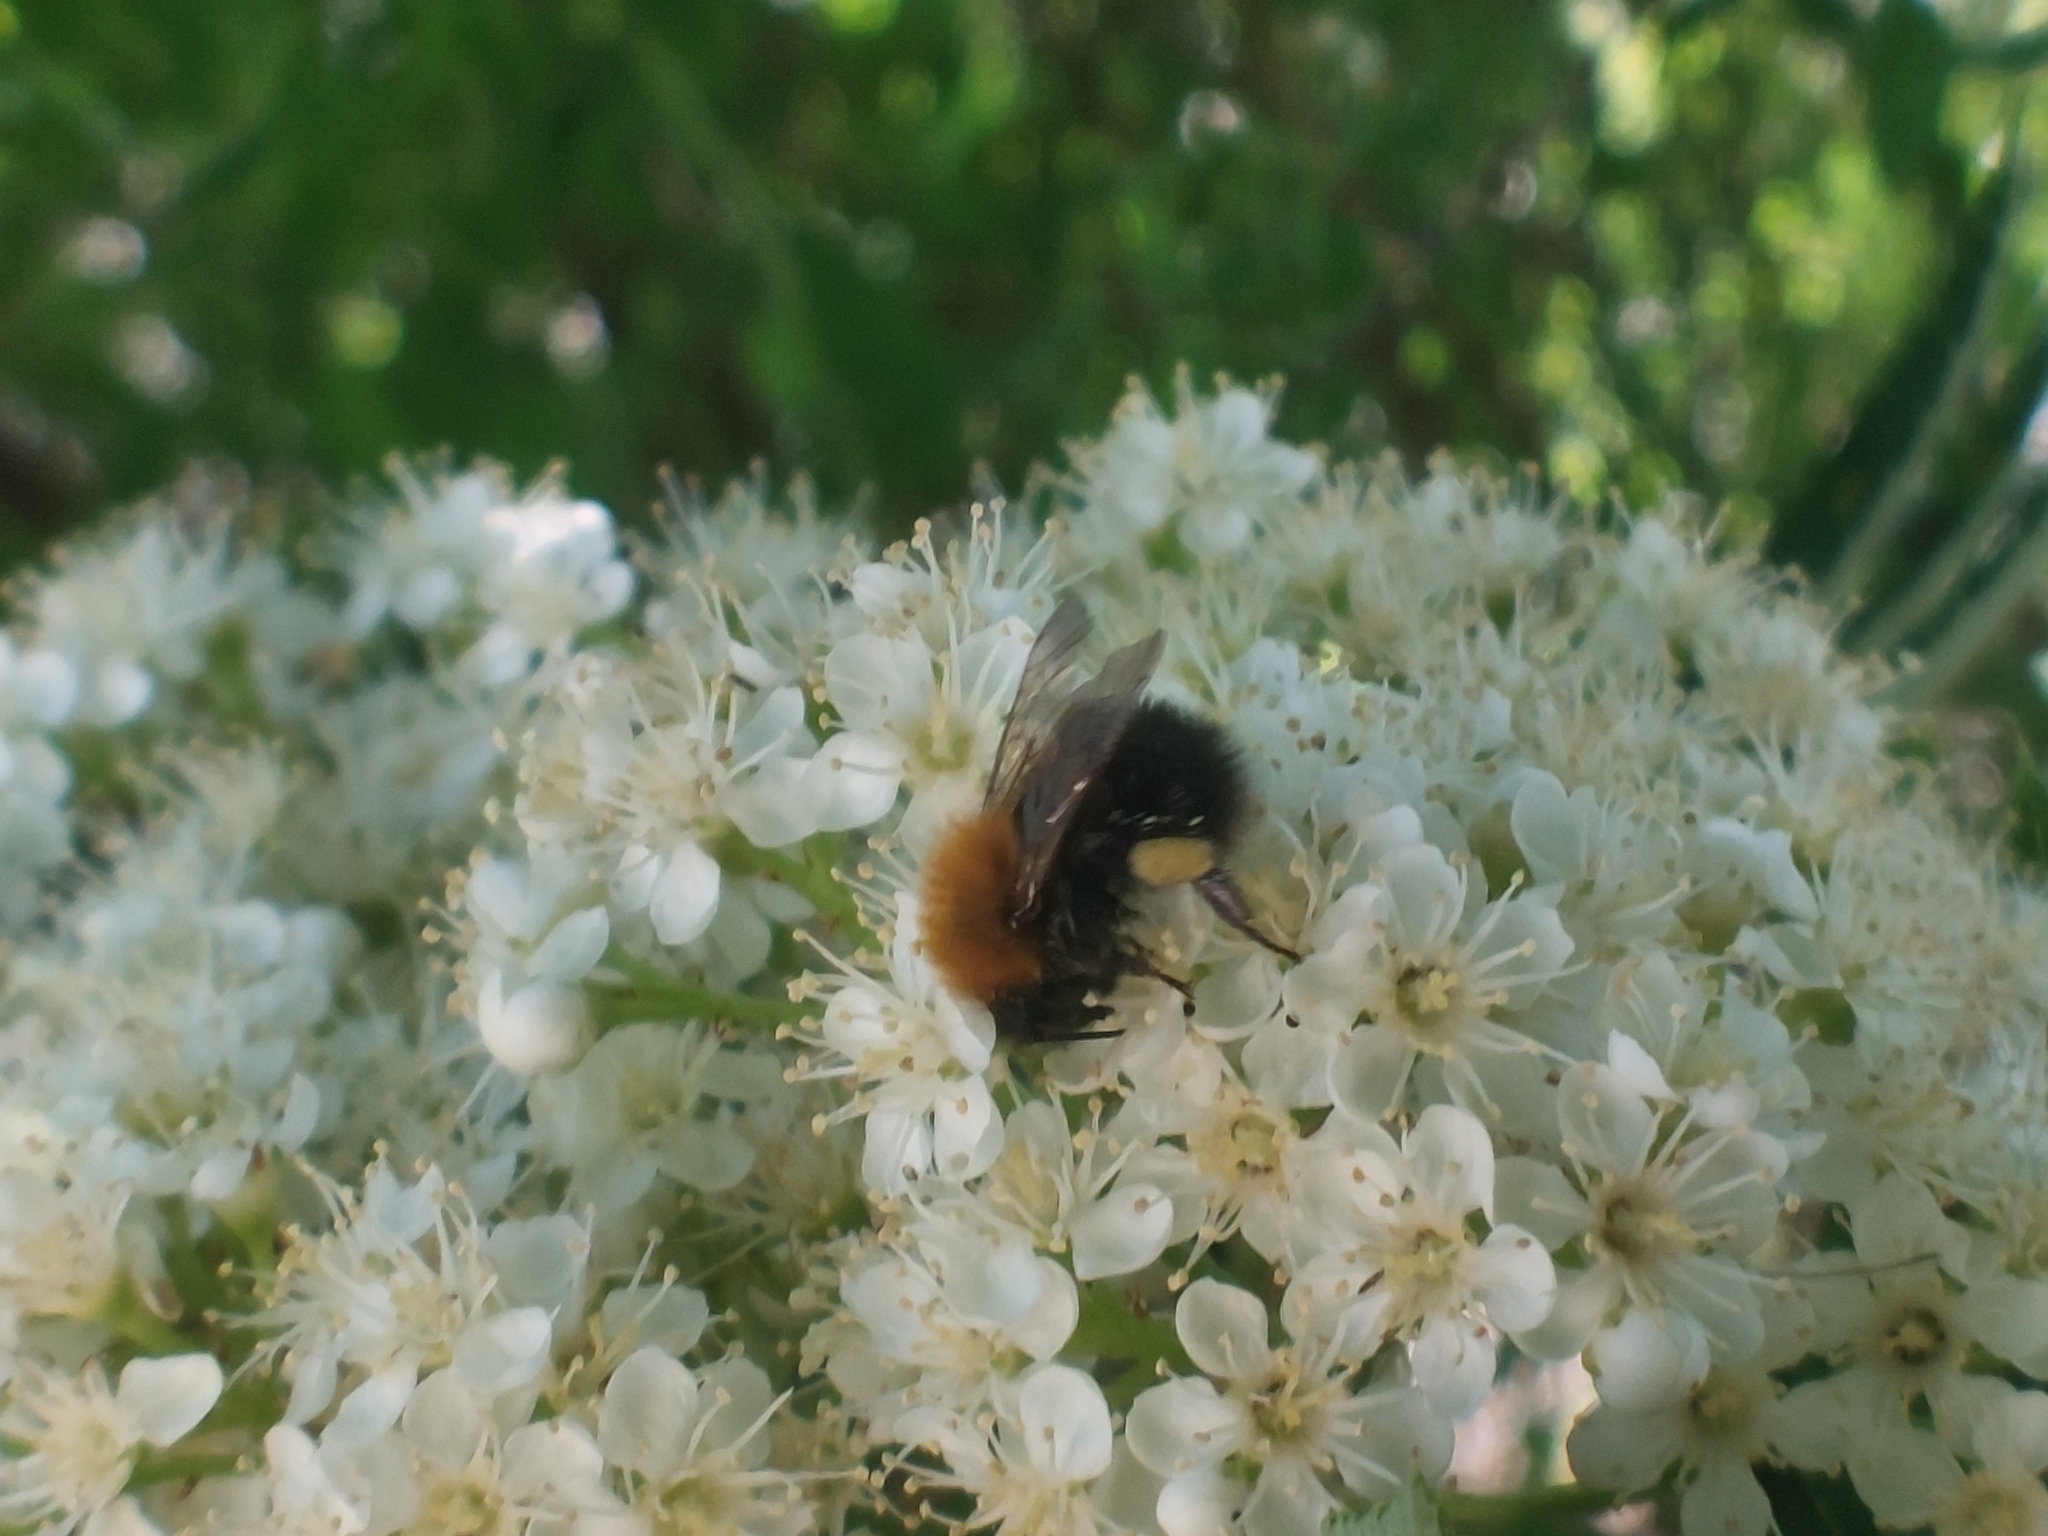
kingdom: Animalia
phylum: Arthropoda
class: Insecta
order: Hymenoptera
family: Apidae
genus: Bombus
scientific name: Bombus hypnorum
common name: New garden bumblebee
